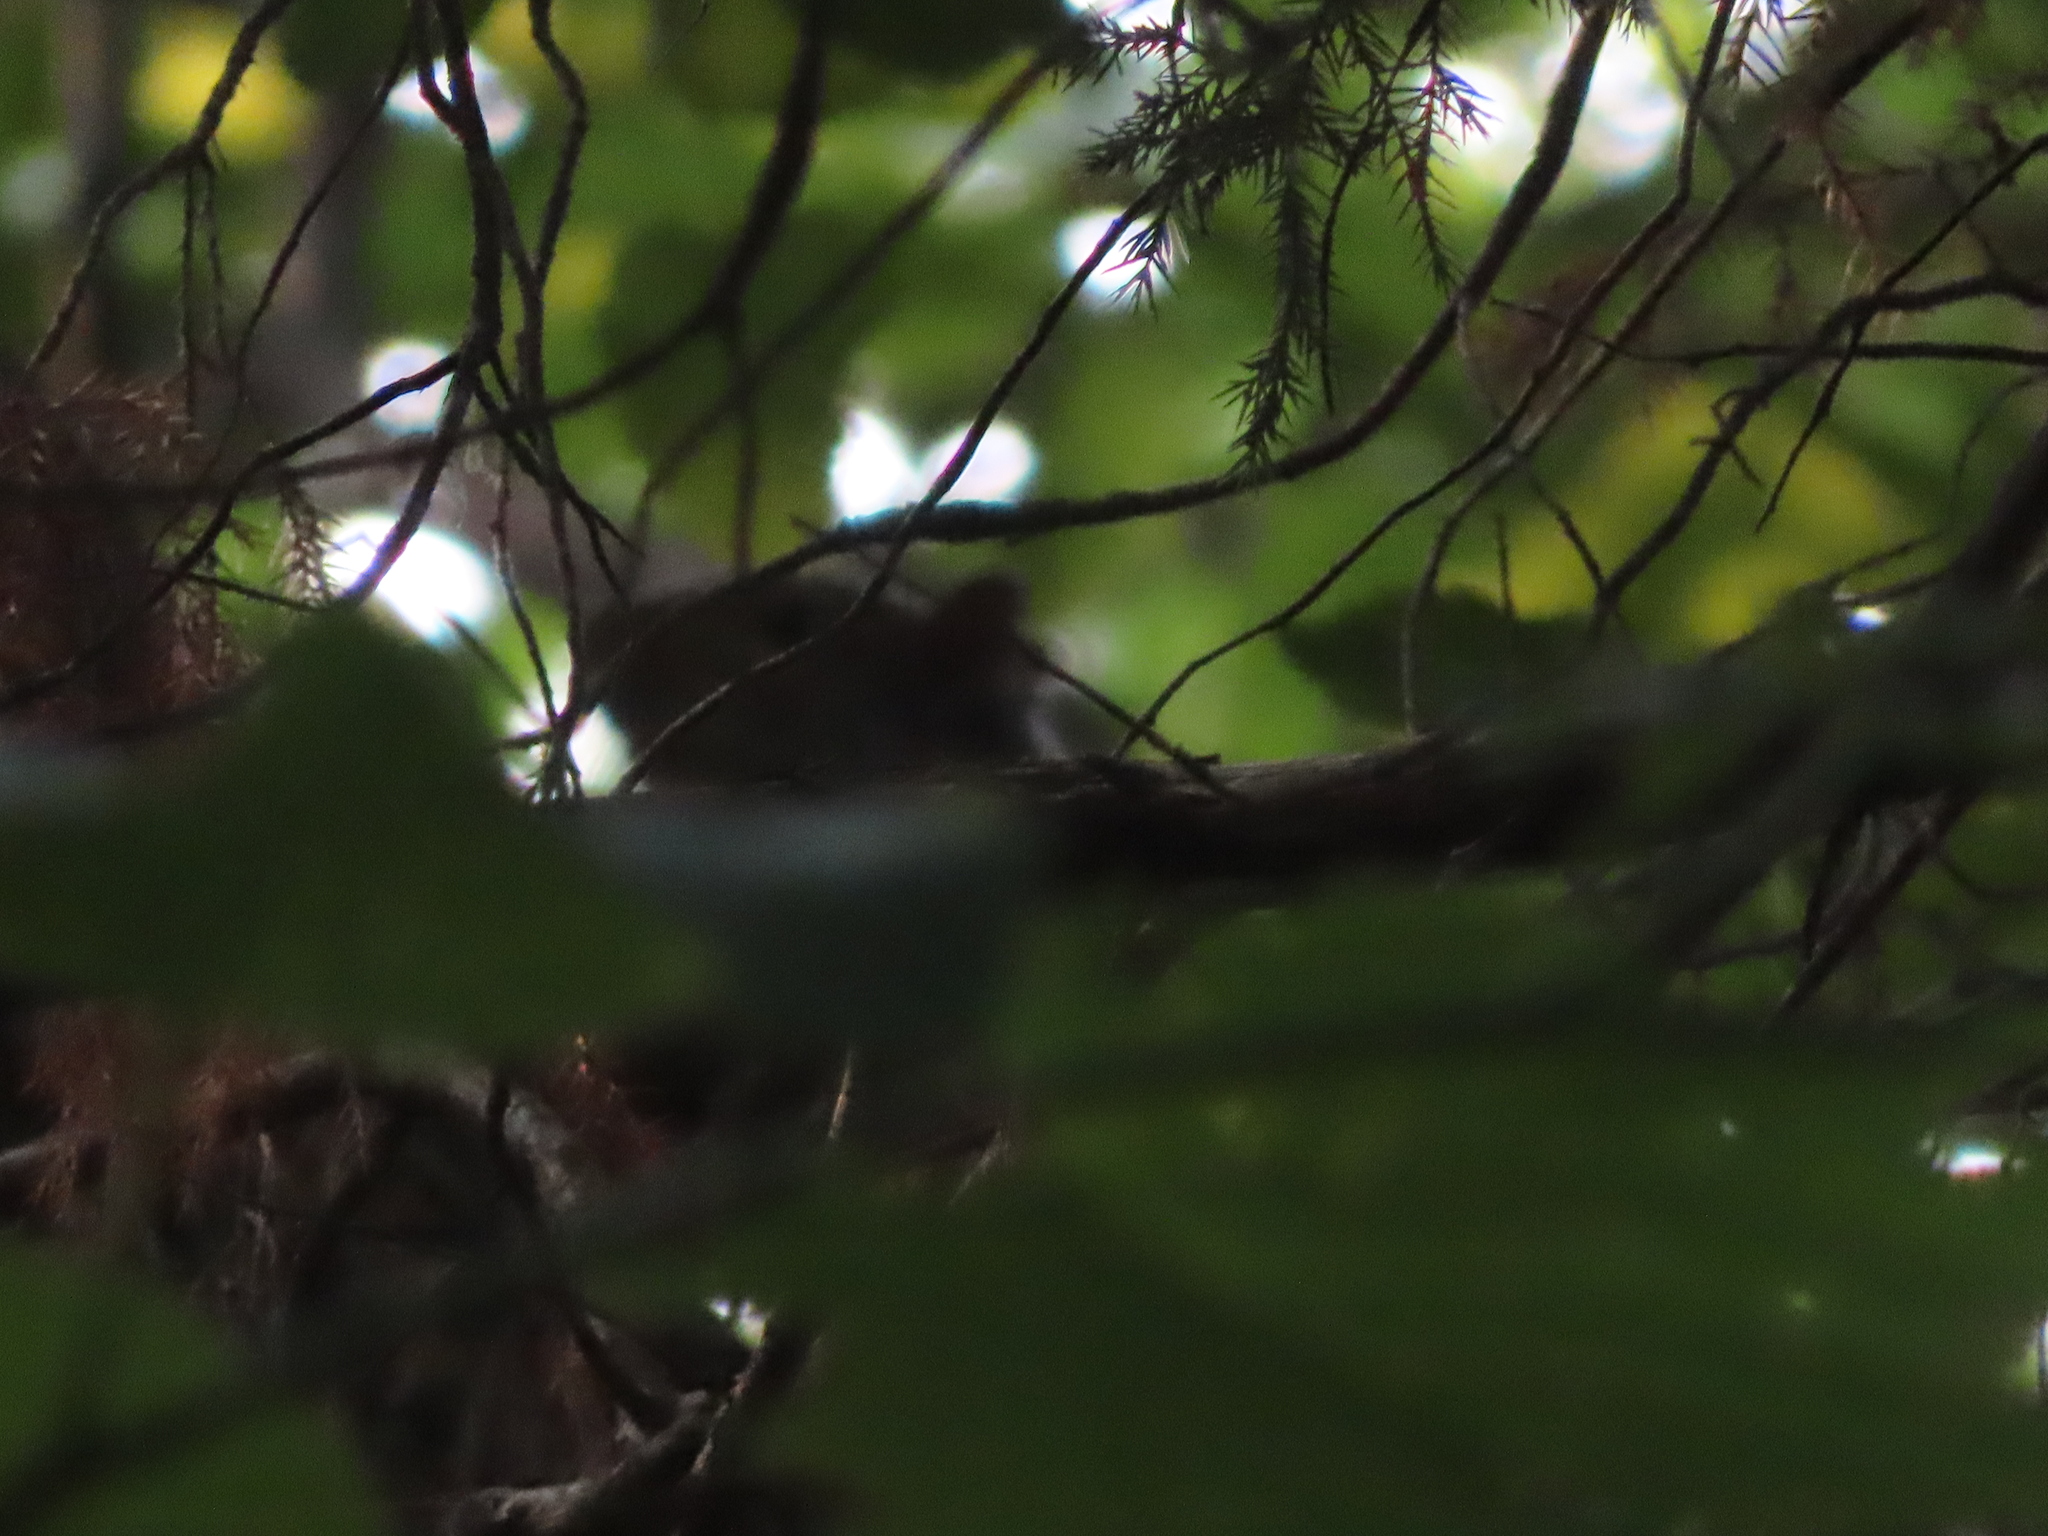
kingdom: Animalia
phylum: Chordata
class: Mammalia
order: Rodentia
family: Sciuridae
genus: Sciurus
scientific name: Sciurus carolinensis
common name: Eastern gray squirrel
